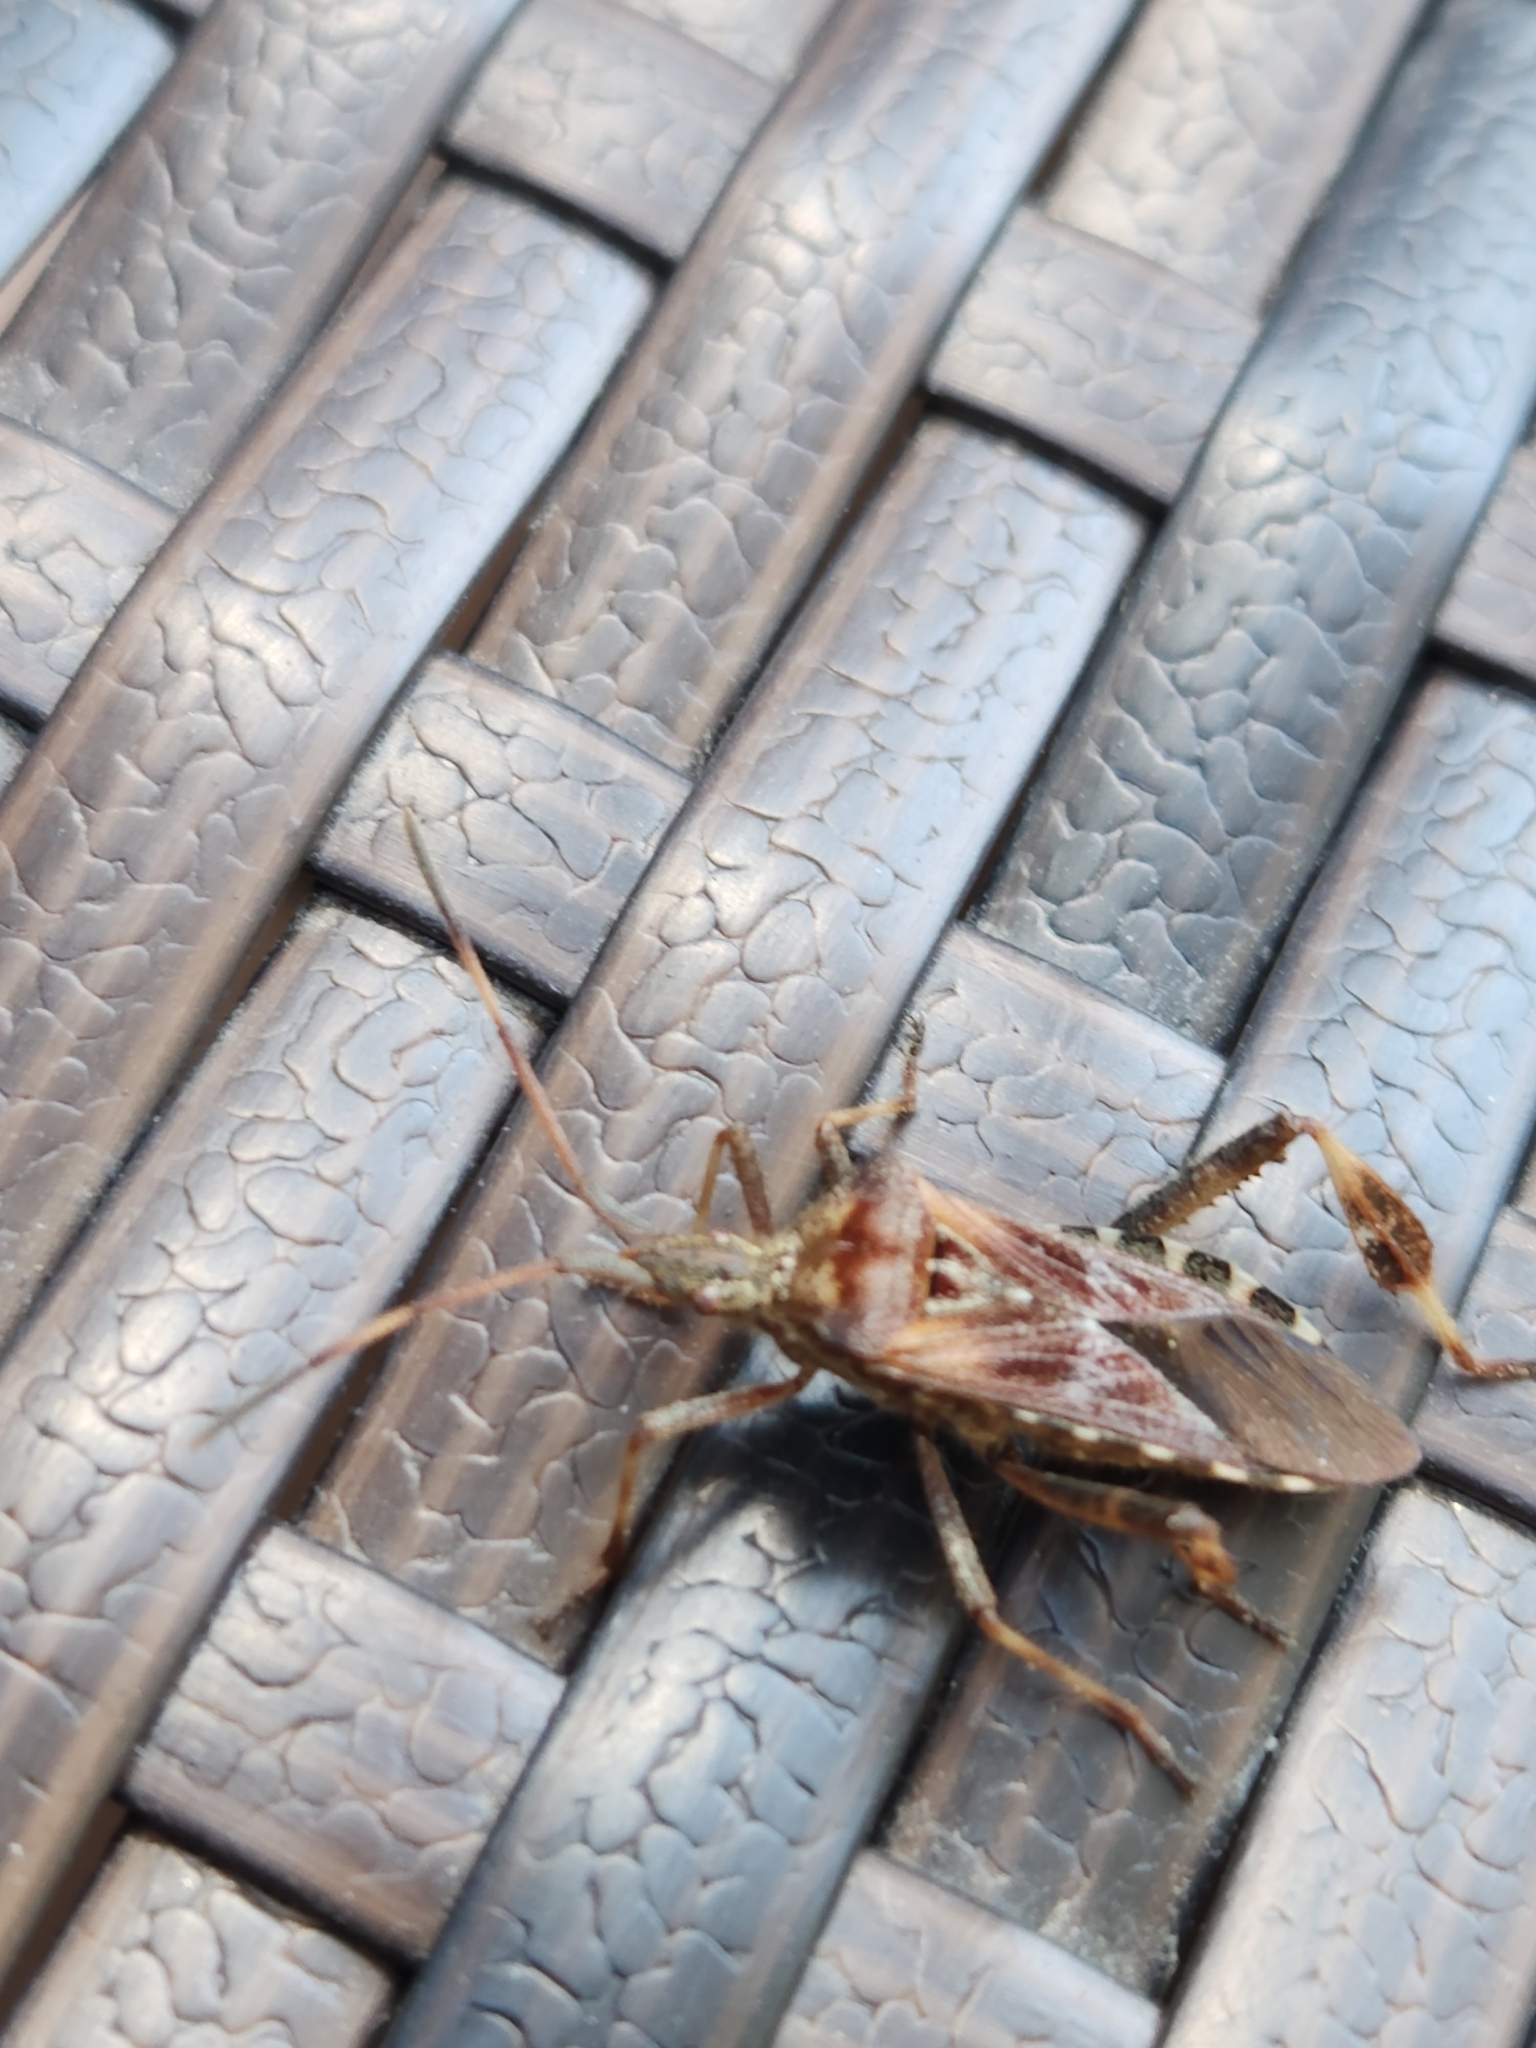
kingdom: Animalia
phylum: Arthropoda
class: Insecta
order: Hemiptera
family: Coreidae
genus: Leptoglossus
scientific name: Leptoglossus occidentalis
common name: Western conifer-seed bug
